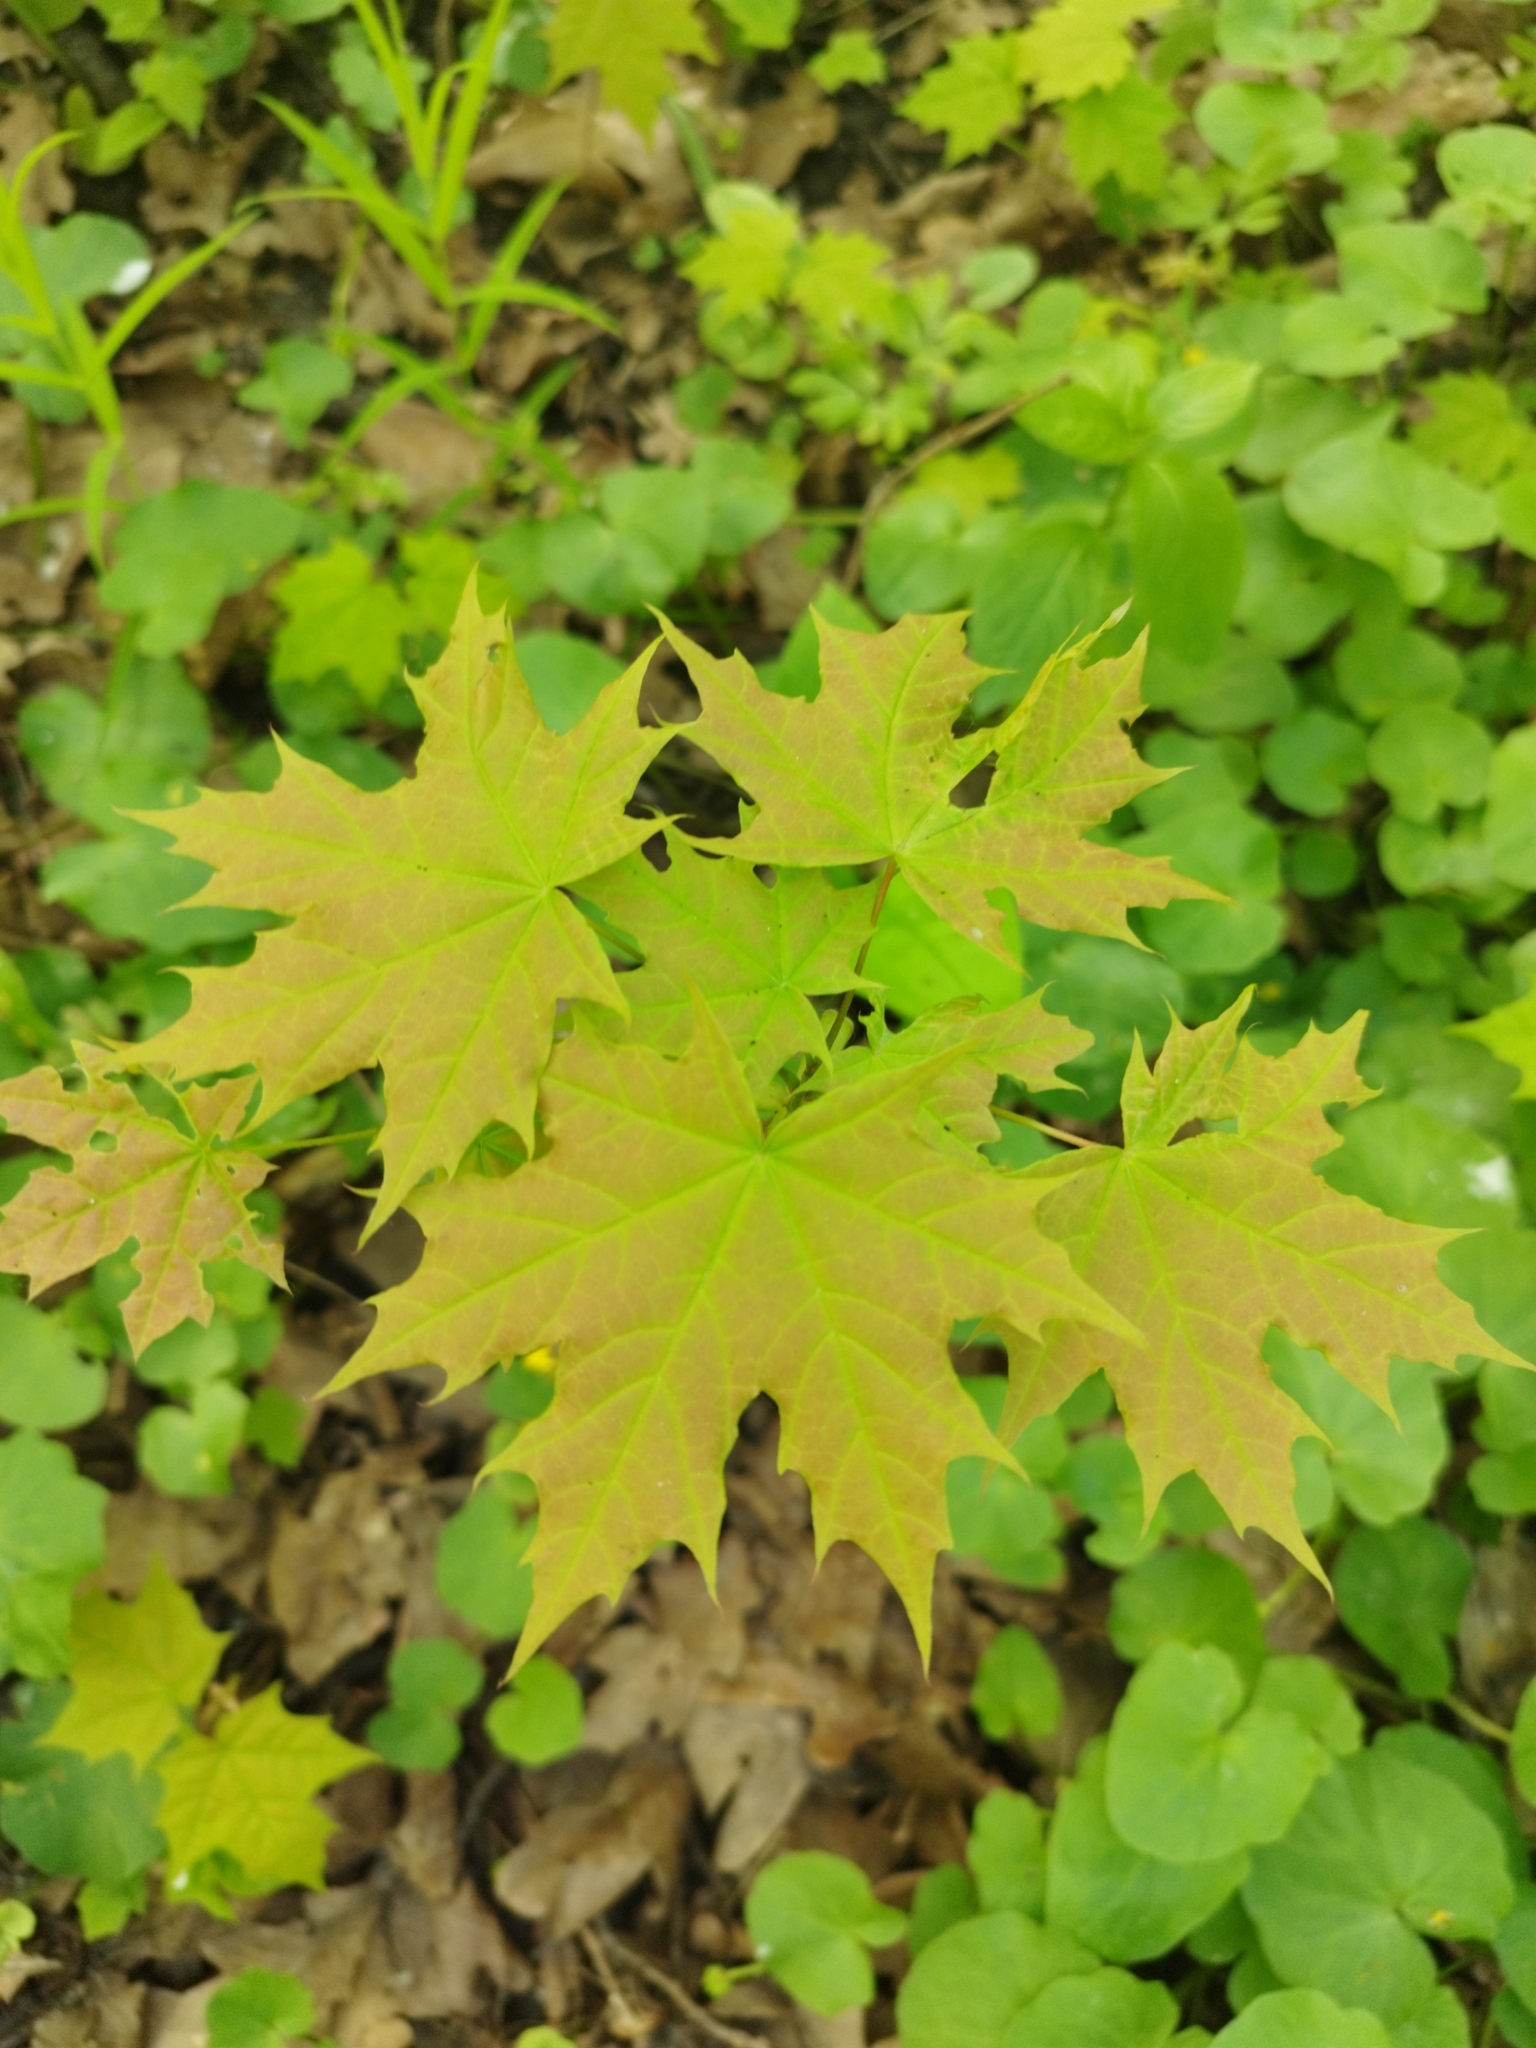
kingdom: Plantae
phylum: Tracheophyta
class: Magnoliopsida
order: Sapindales
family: Sapindaceae
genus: Acer
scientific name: Acer platanoides
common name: Norway maple
